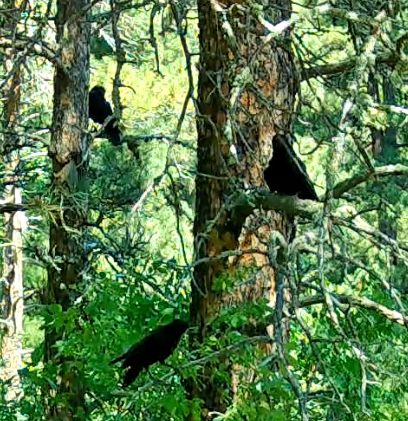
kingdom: Animalia
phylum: Chordata
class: Aves
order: Passeriformes
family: Corvidae
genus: Corvus
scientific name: Corvus brachyrhynchos
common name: American crow
